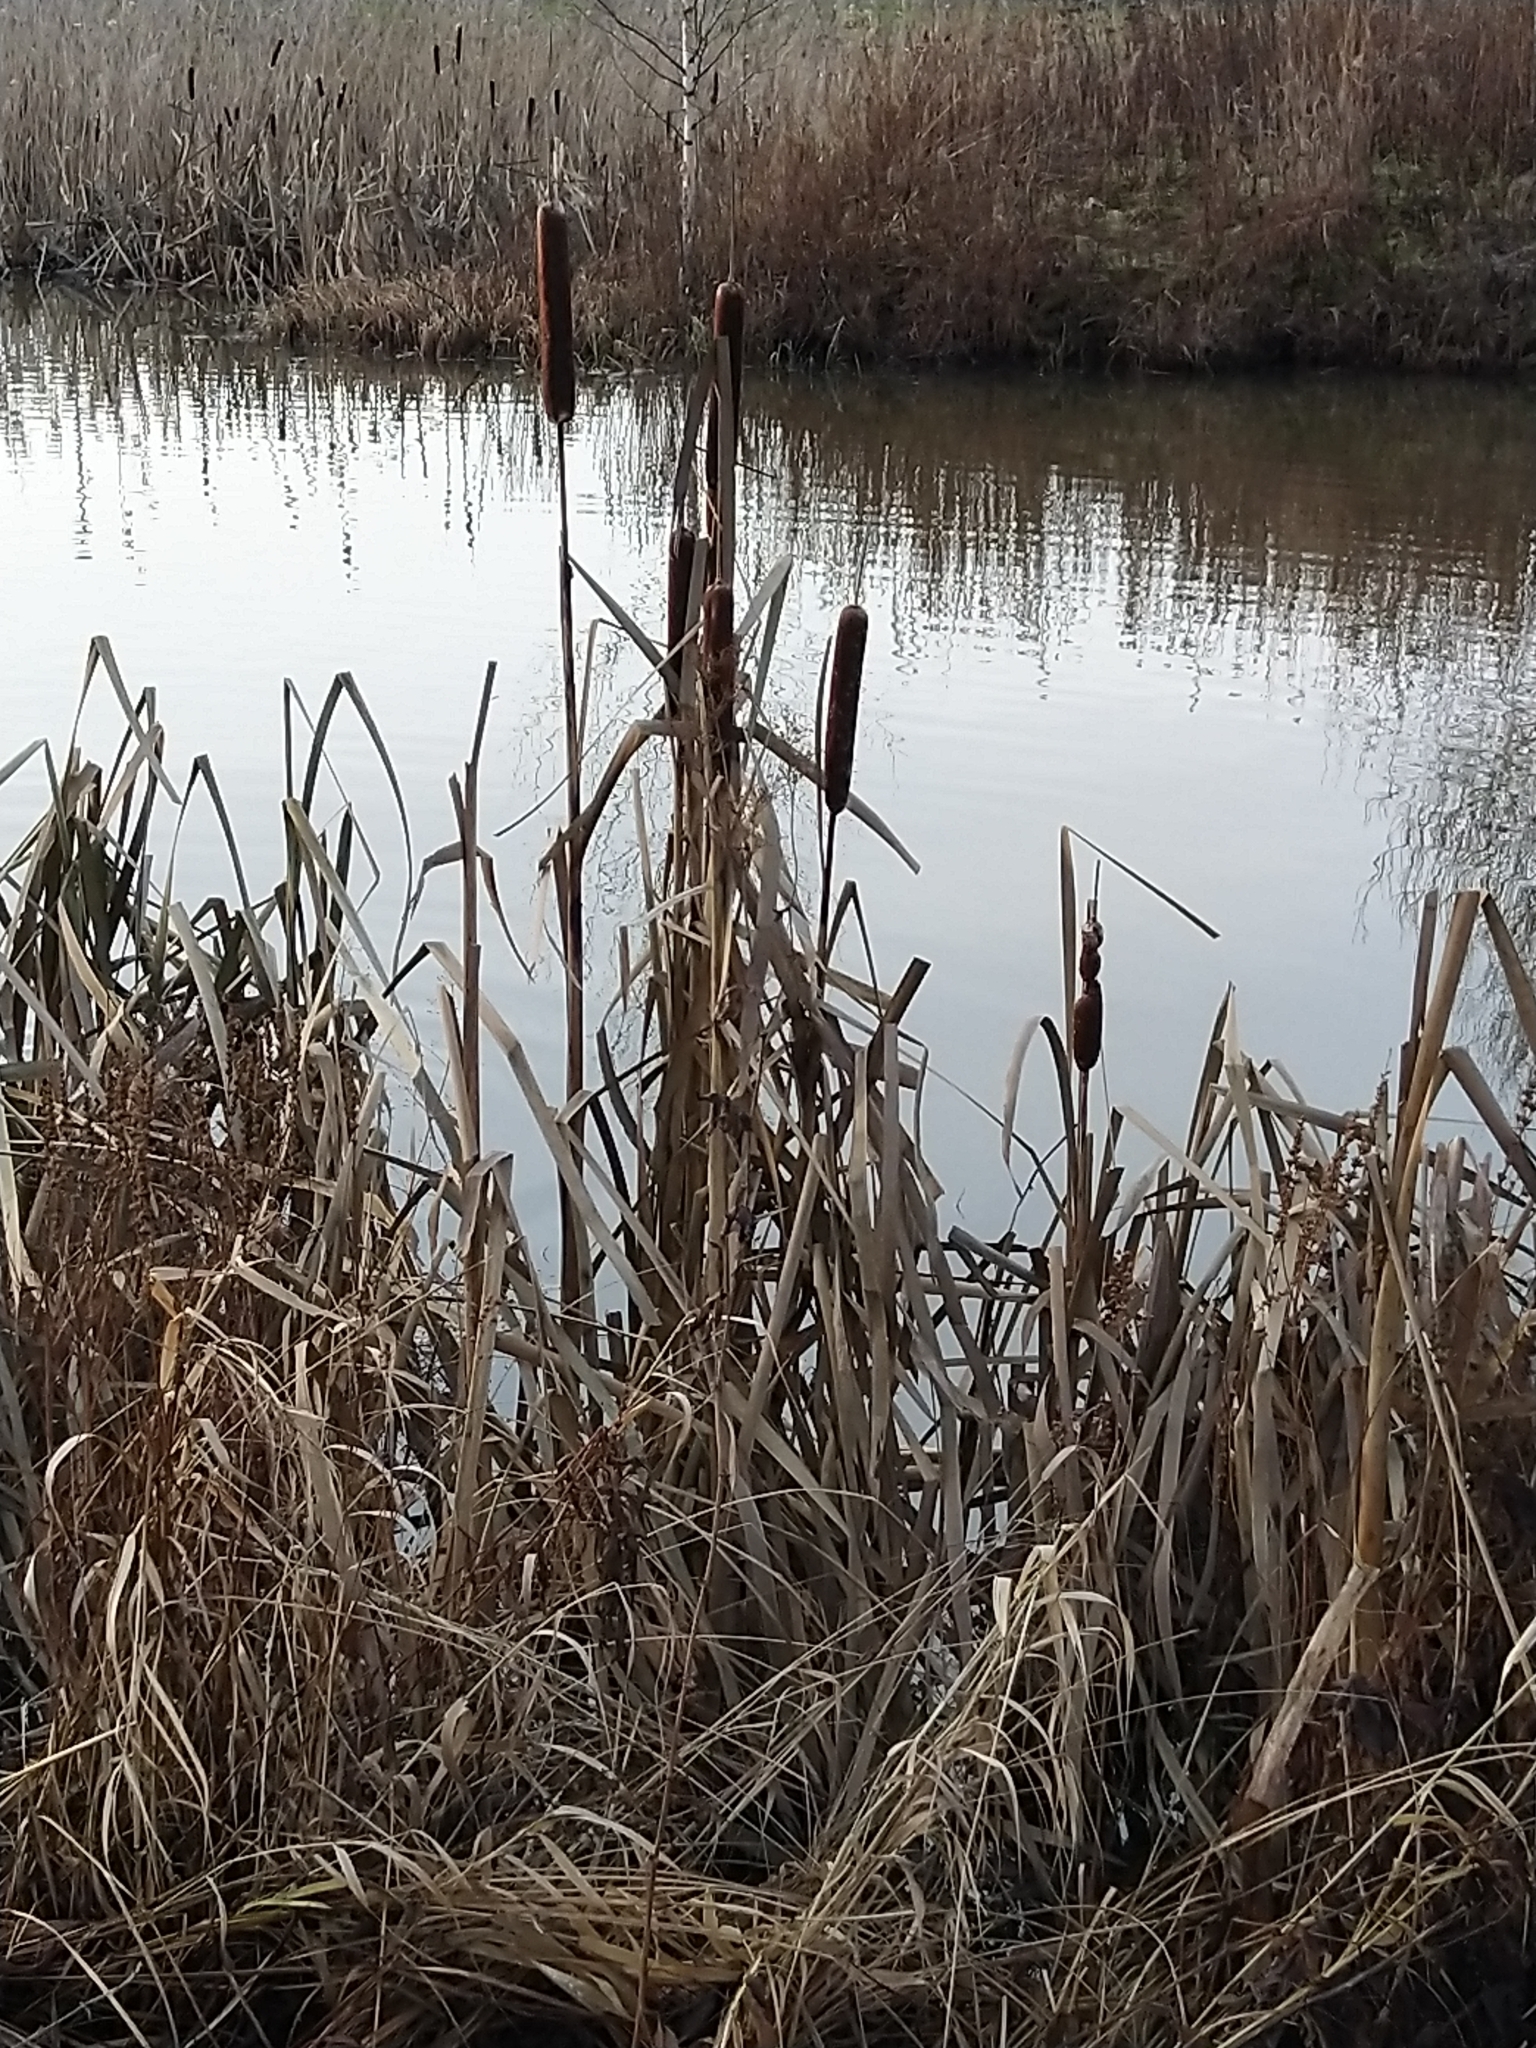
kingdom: Plantae
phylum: Tracheophyta
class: Liliopsida
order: Poales
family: Typhaceae
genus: Typha
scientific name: Typha latifolia
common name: Broadleaf cattail
